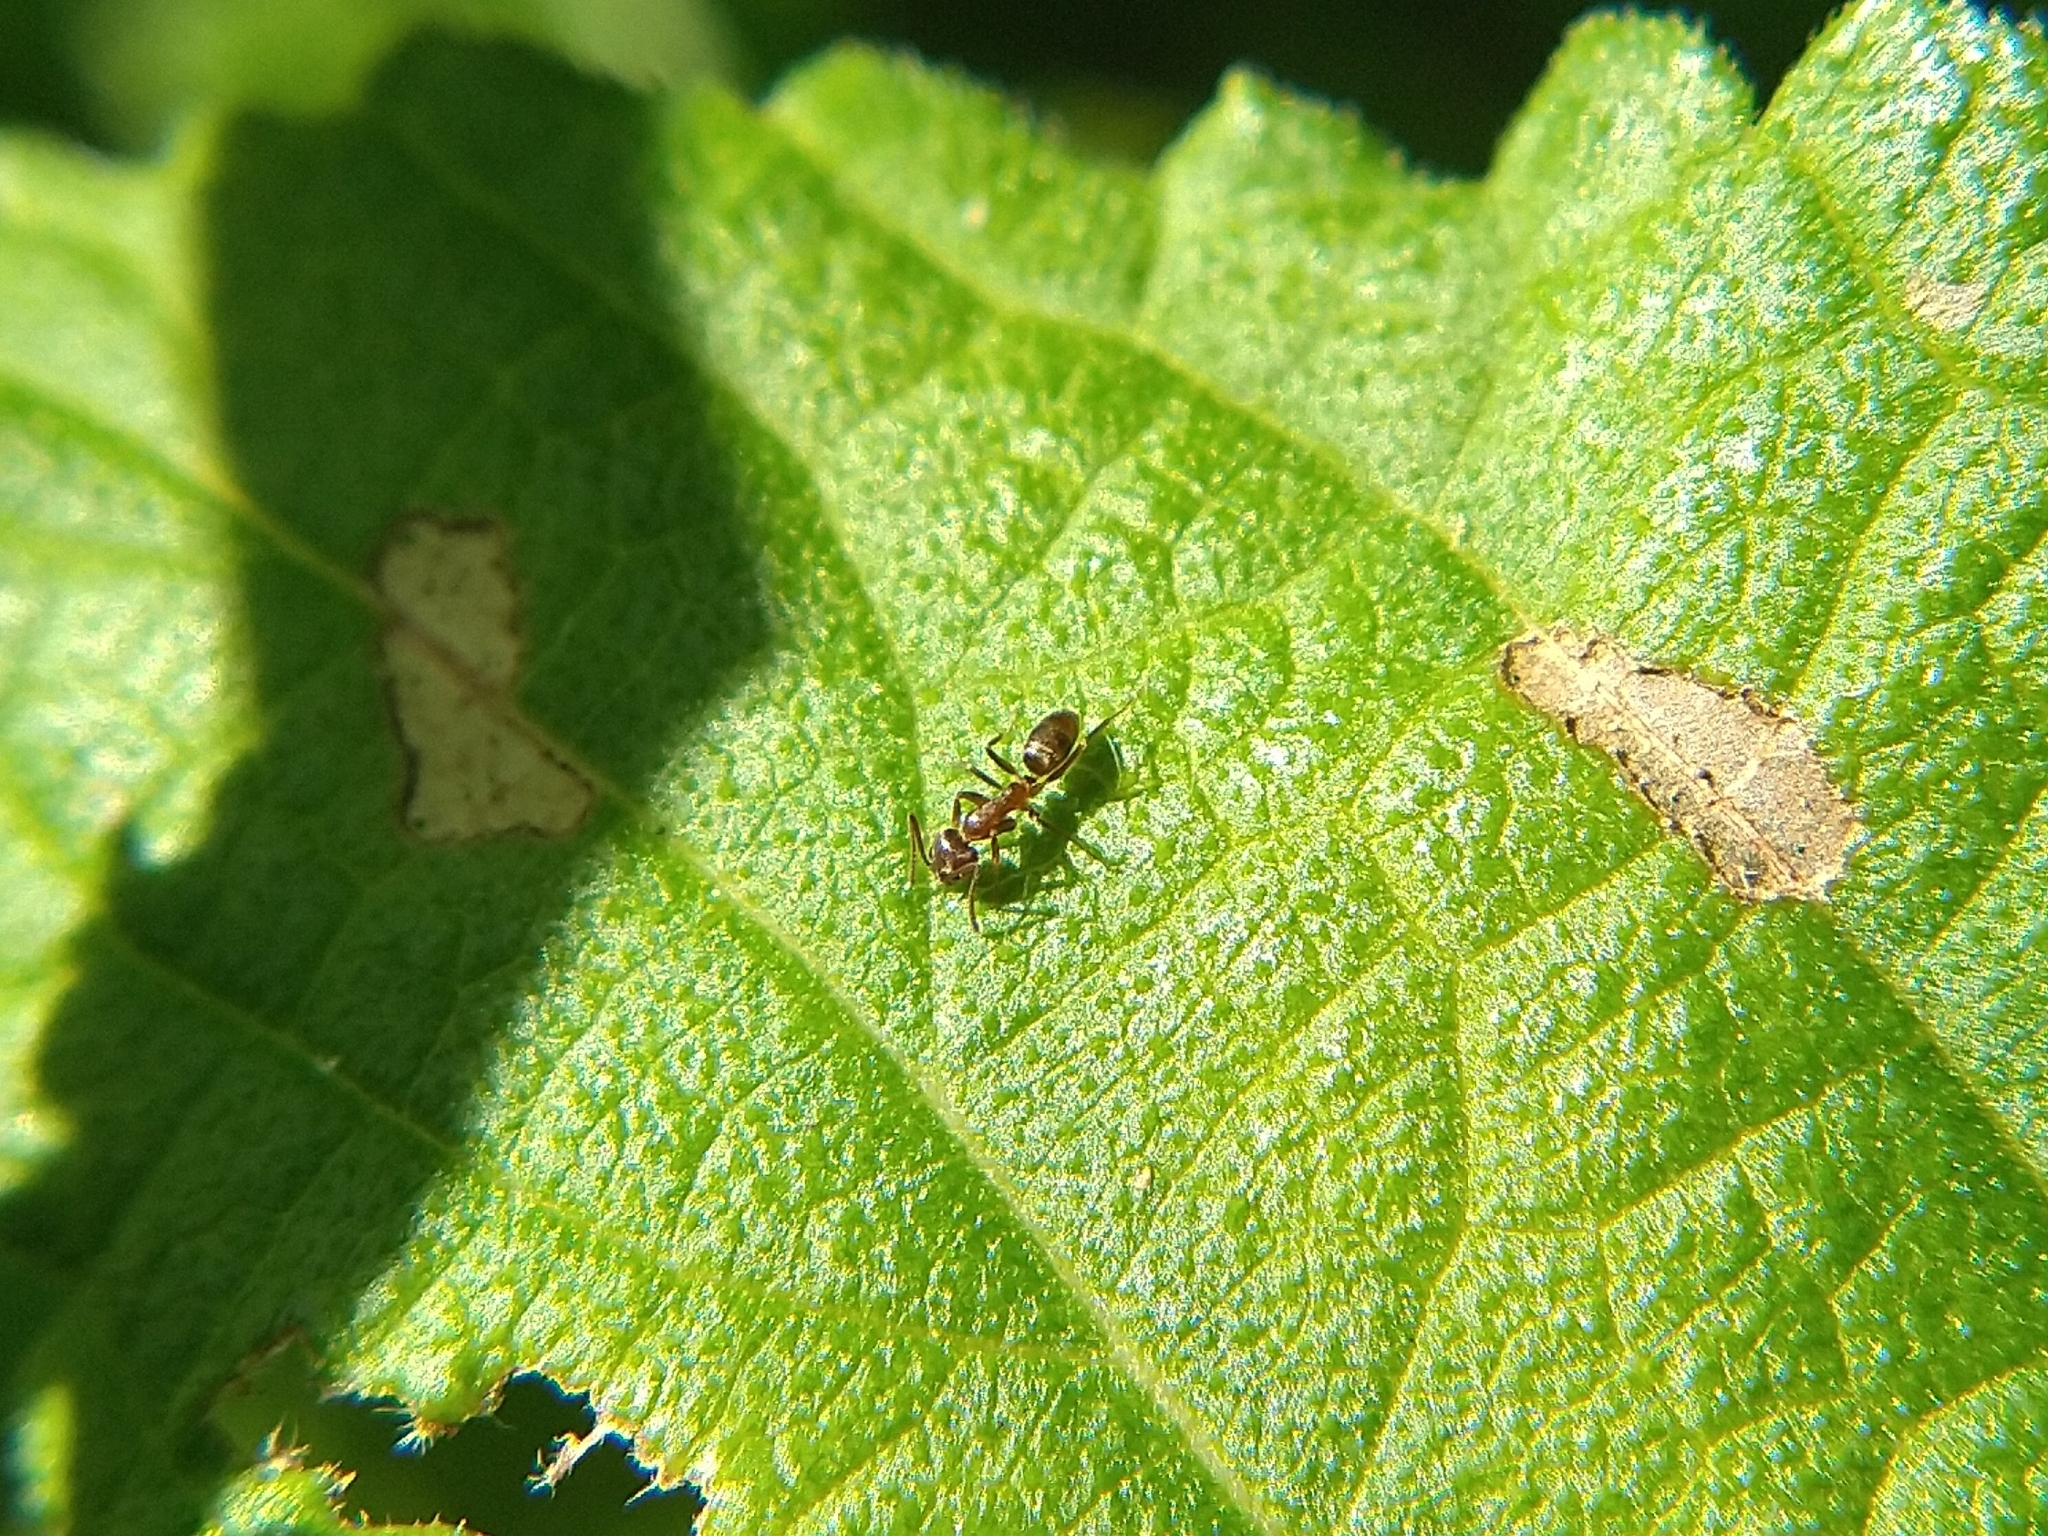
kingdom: Animalia
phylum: Arthropoda
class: Insecta
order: Hymenoptera
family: Formicidae
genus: Linepithema
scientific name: Linepithema humile
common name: Argentine ant
